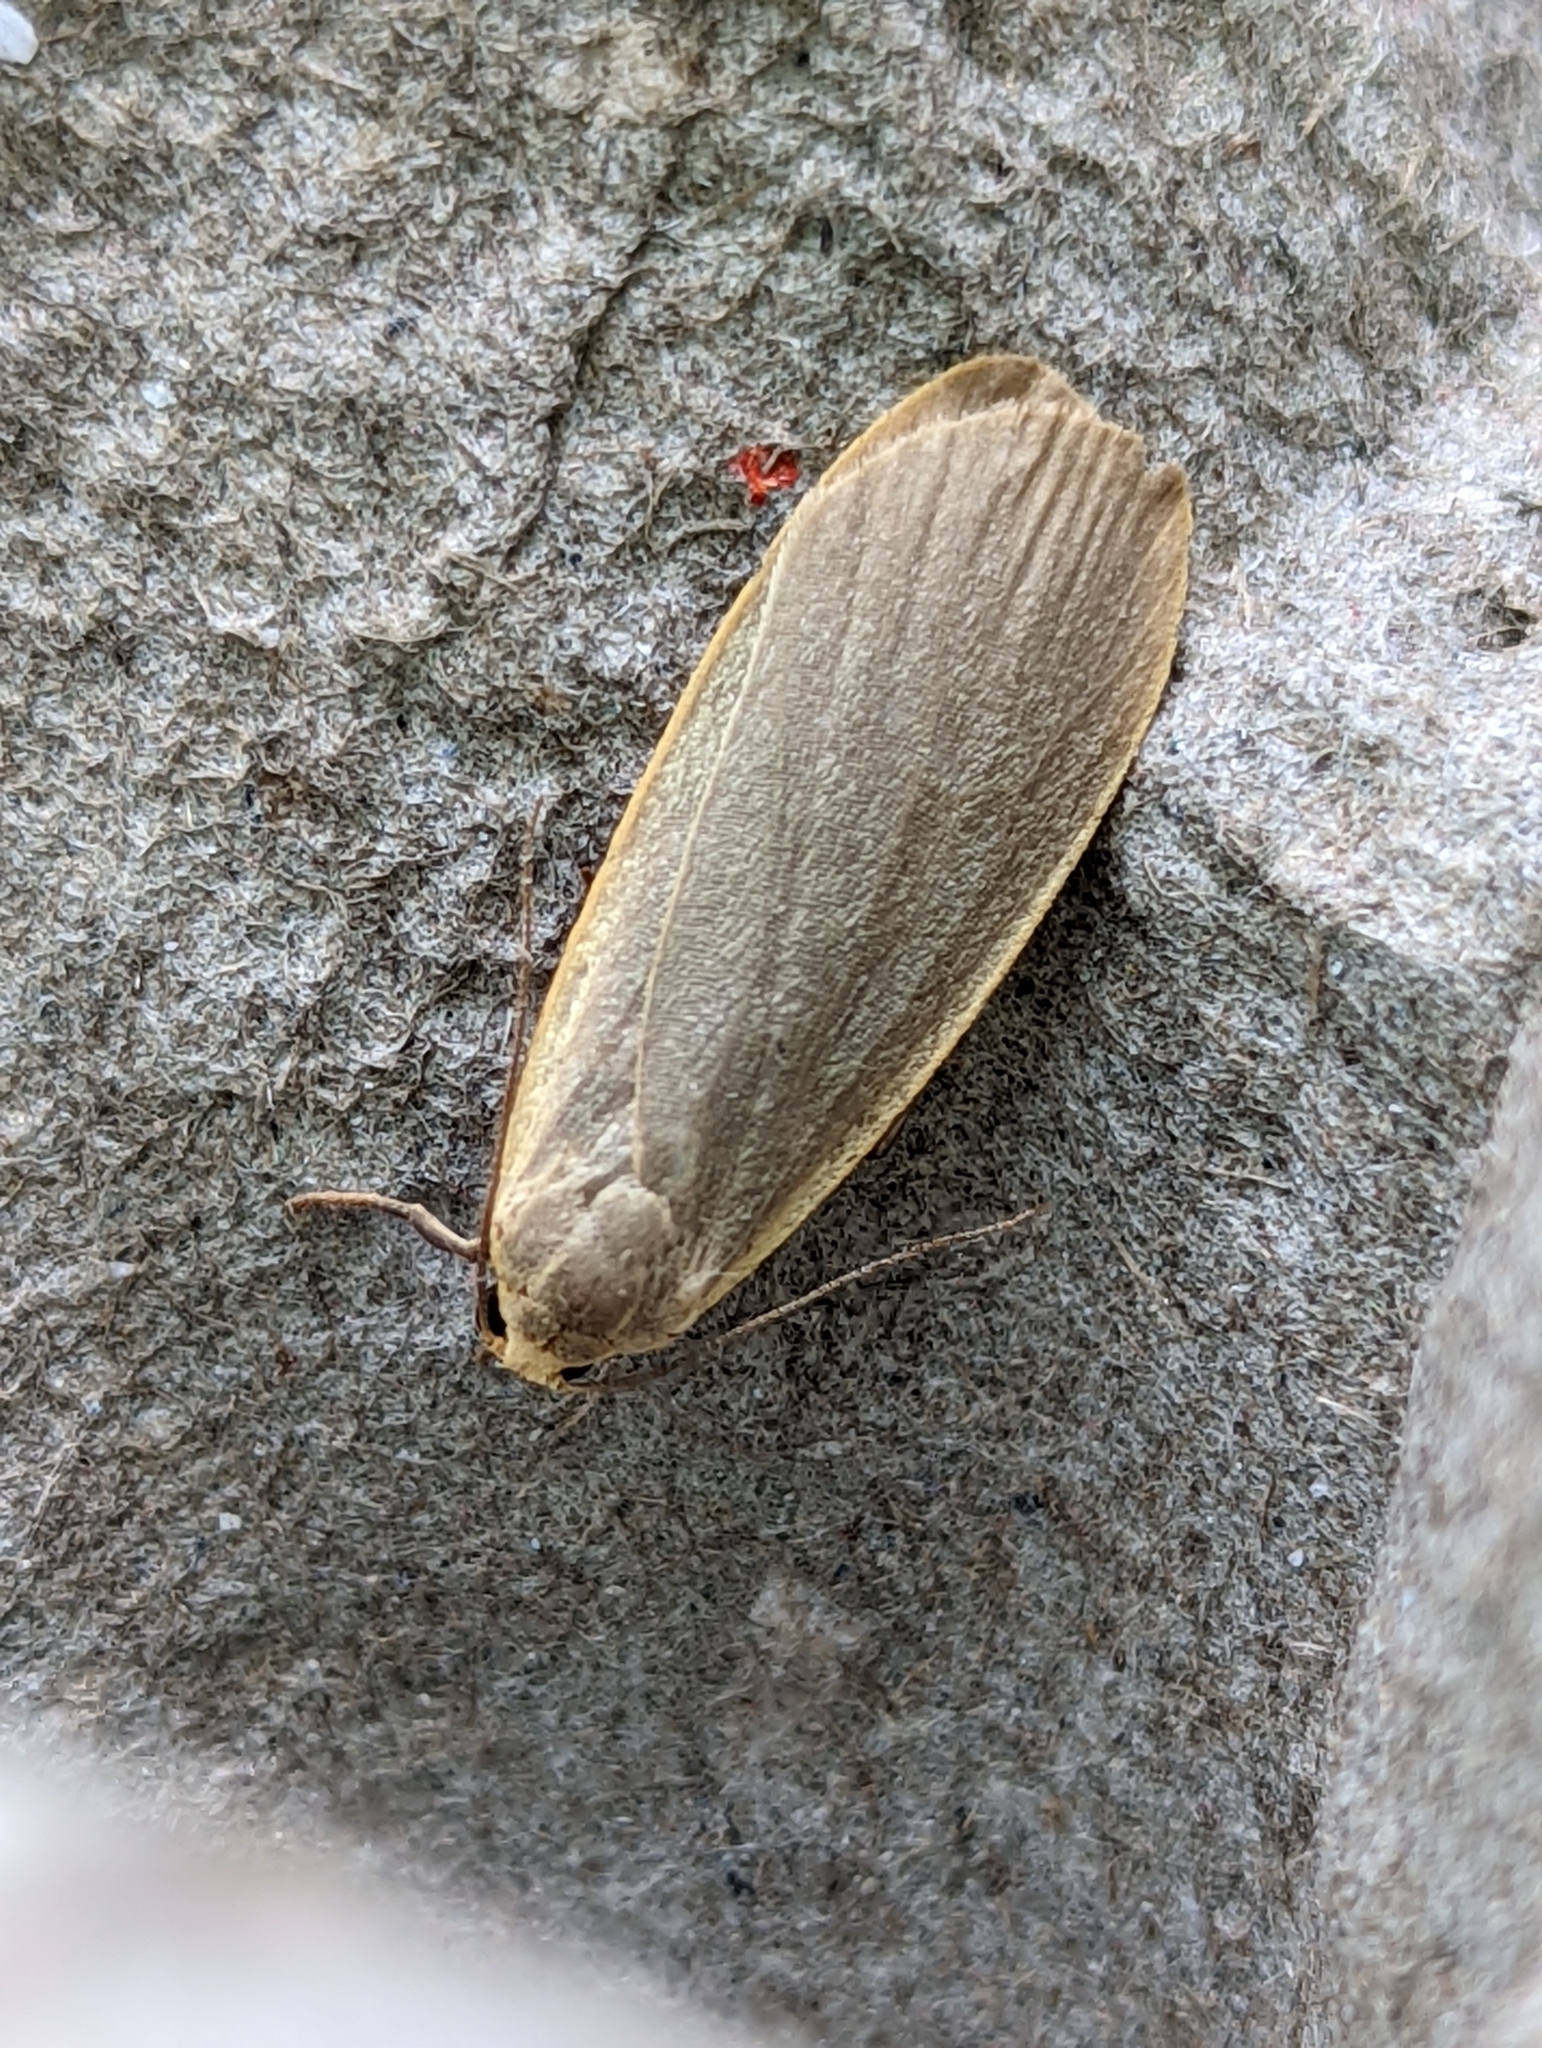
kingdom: Animalia
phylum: Arthropoda
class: Insecta
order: Lepidoptera
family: Erebidae
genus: Collita
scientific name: Collita griseola
